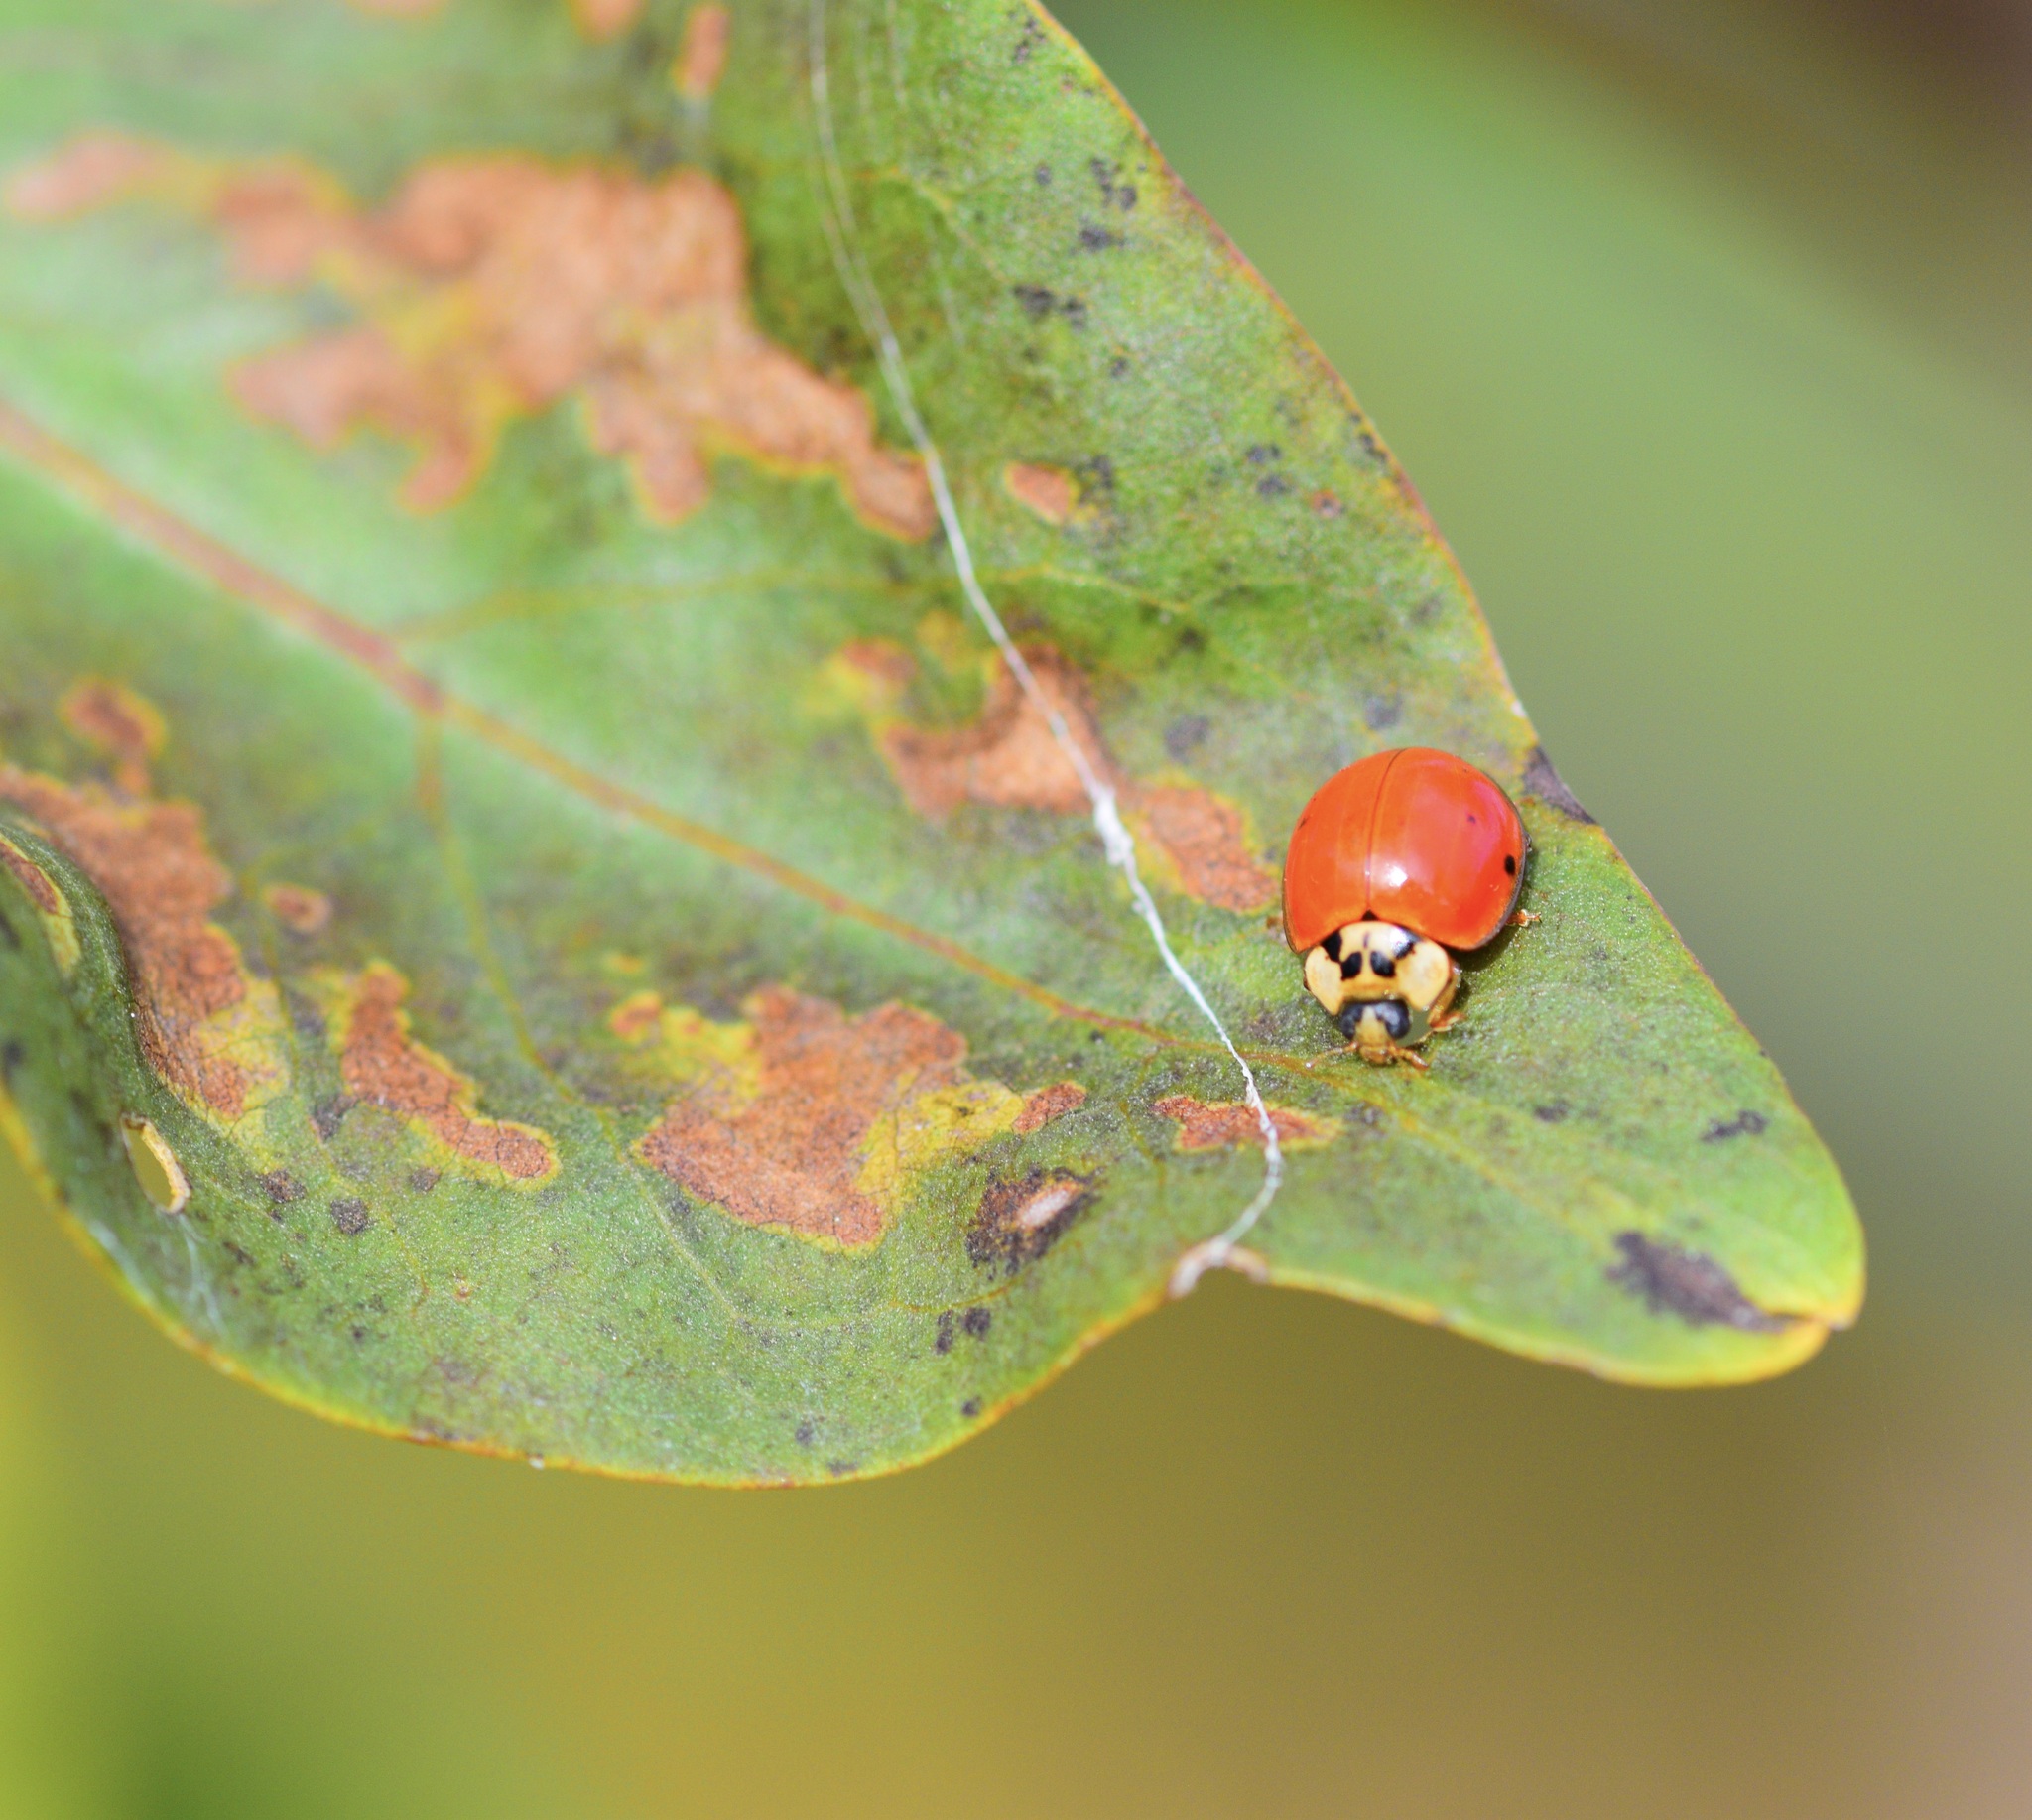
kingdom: Animalia
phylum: Arthropoda
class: Insecta
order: Coleoptera
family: Coccinellidae
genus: Harmonia
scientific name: Harmonia axyridis
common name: Harlequin ladybird
